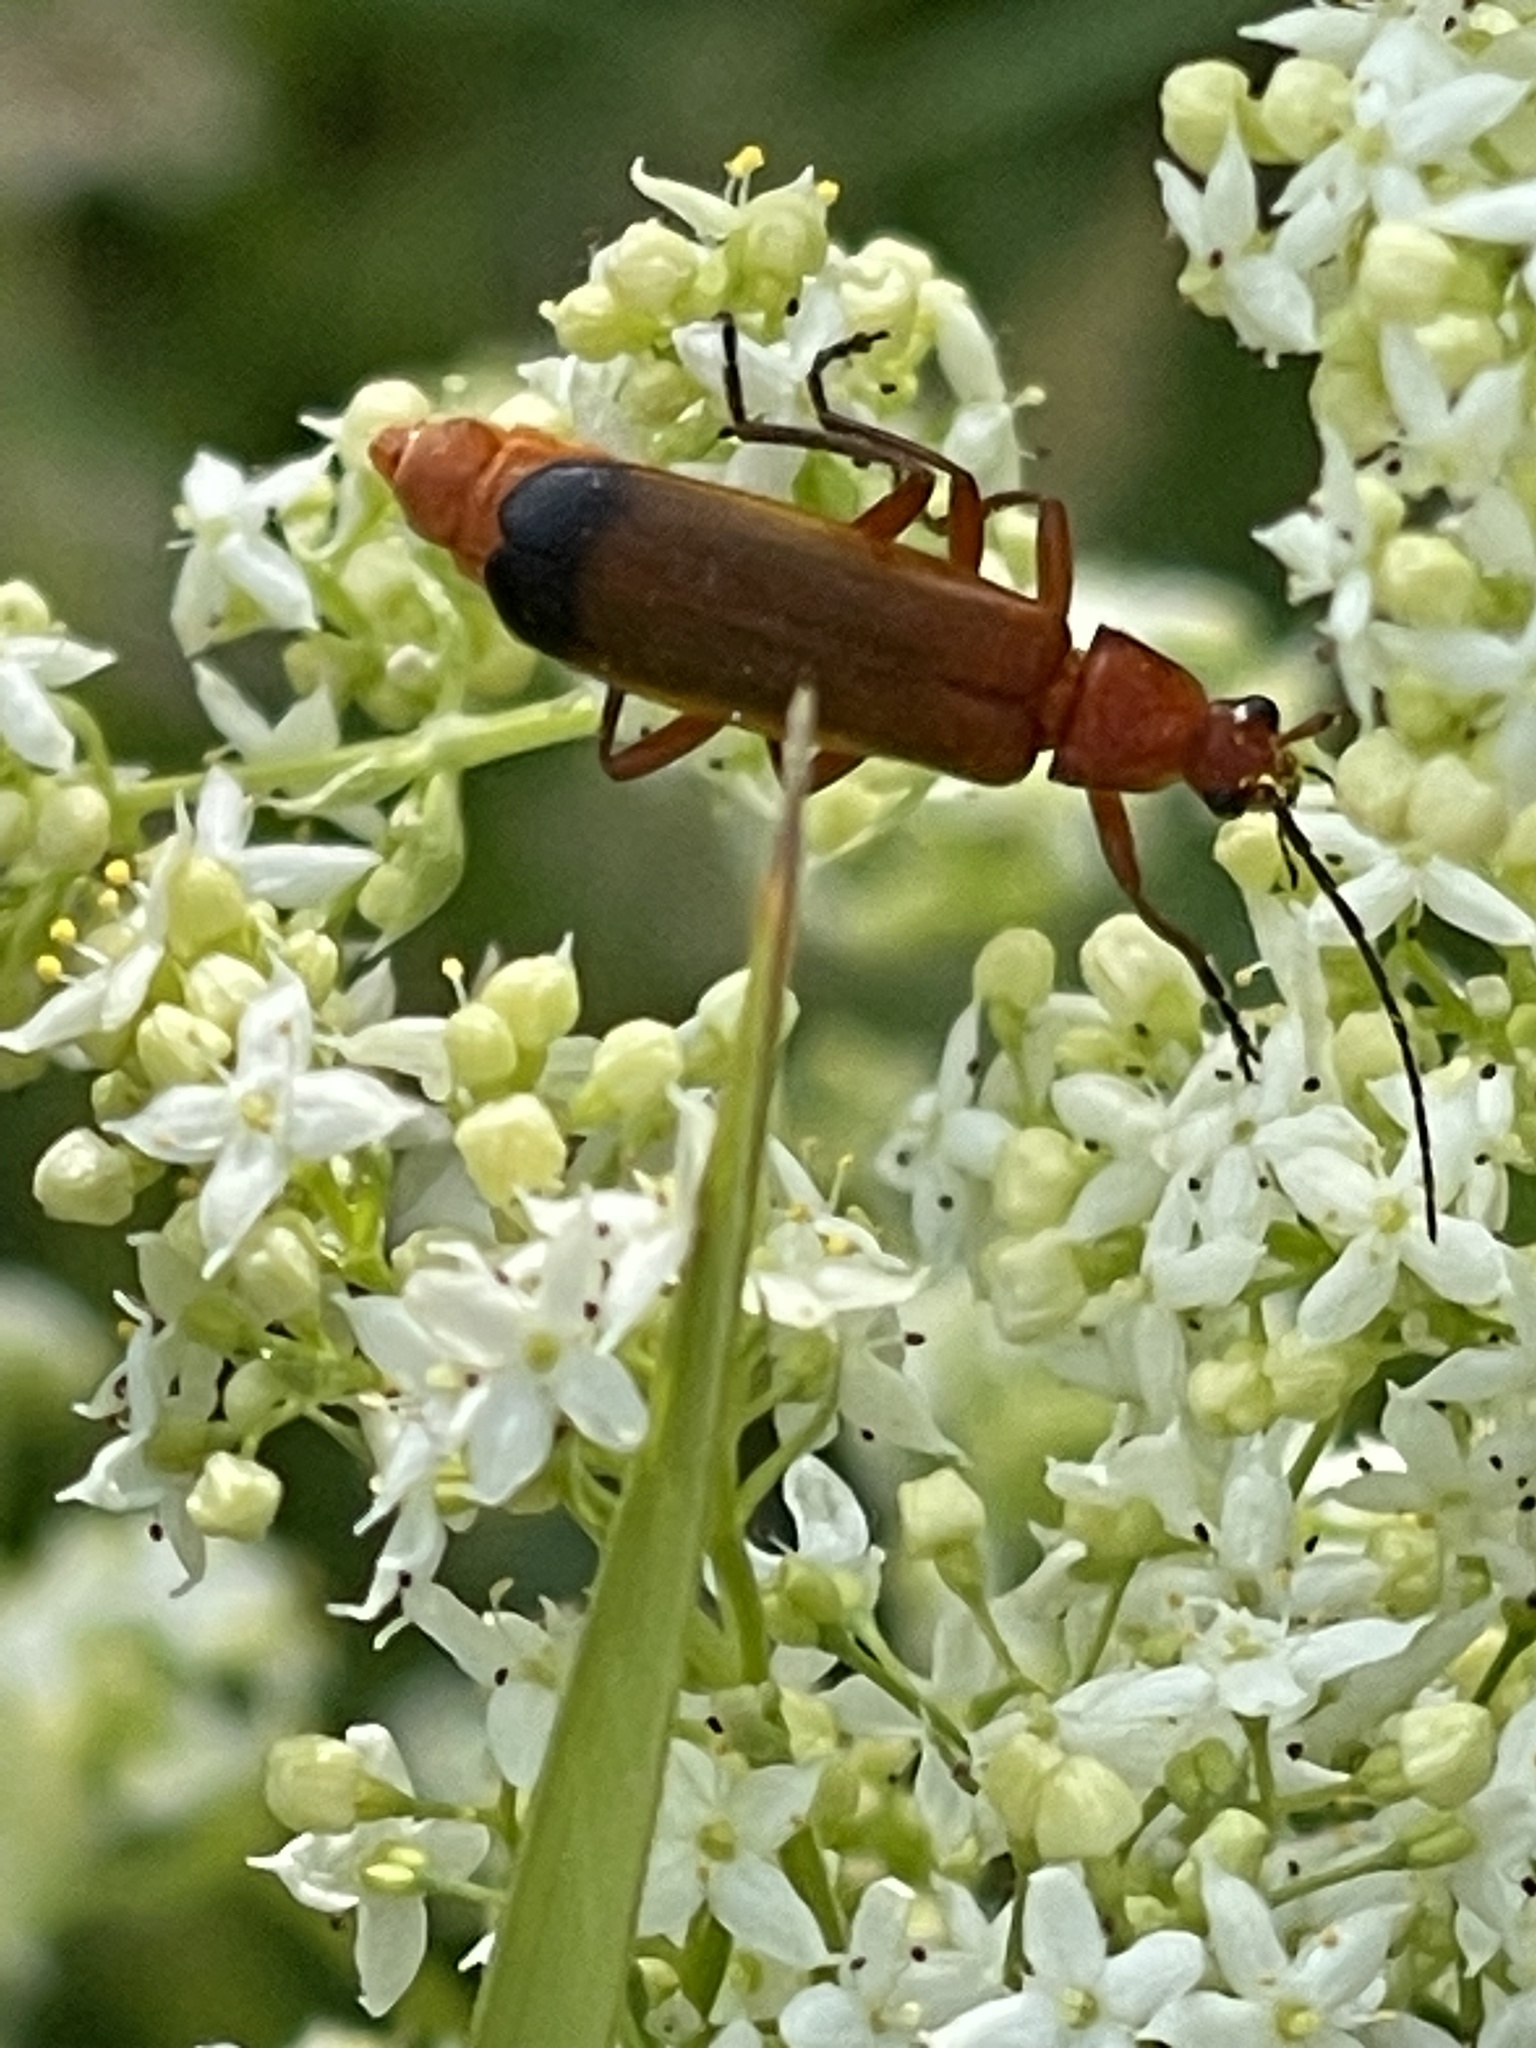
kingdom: Animalia
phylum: Arthropoda
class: Insecta
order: Coleoptera
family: Cantharidae
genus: Rhagonycha
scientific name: Rhagonycha fulva
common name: Common red soldier beetle
